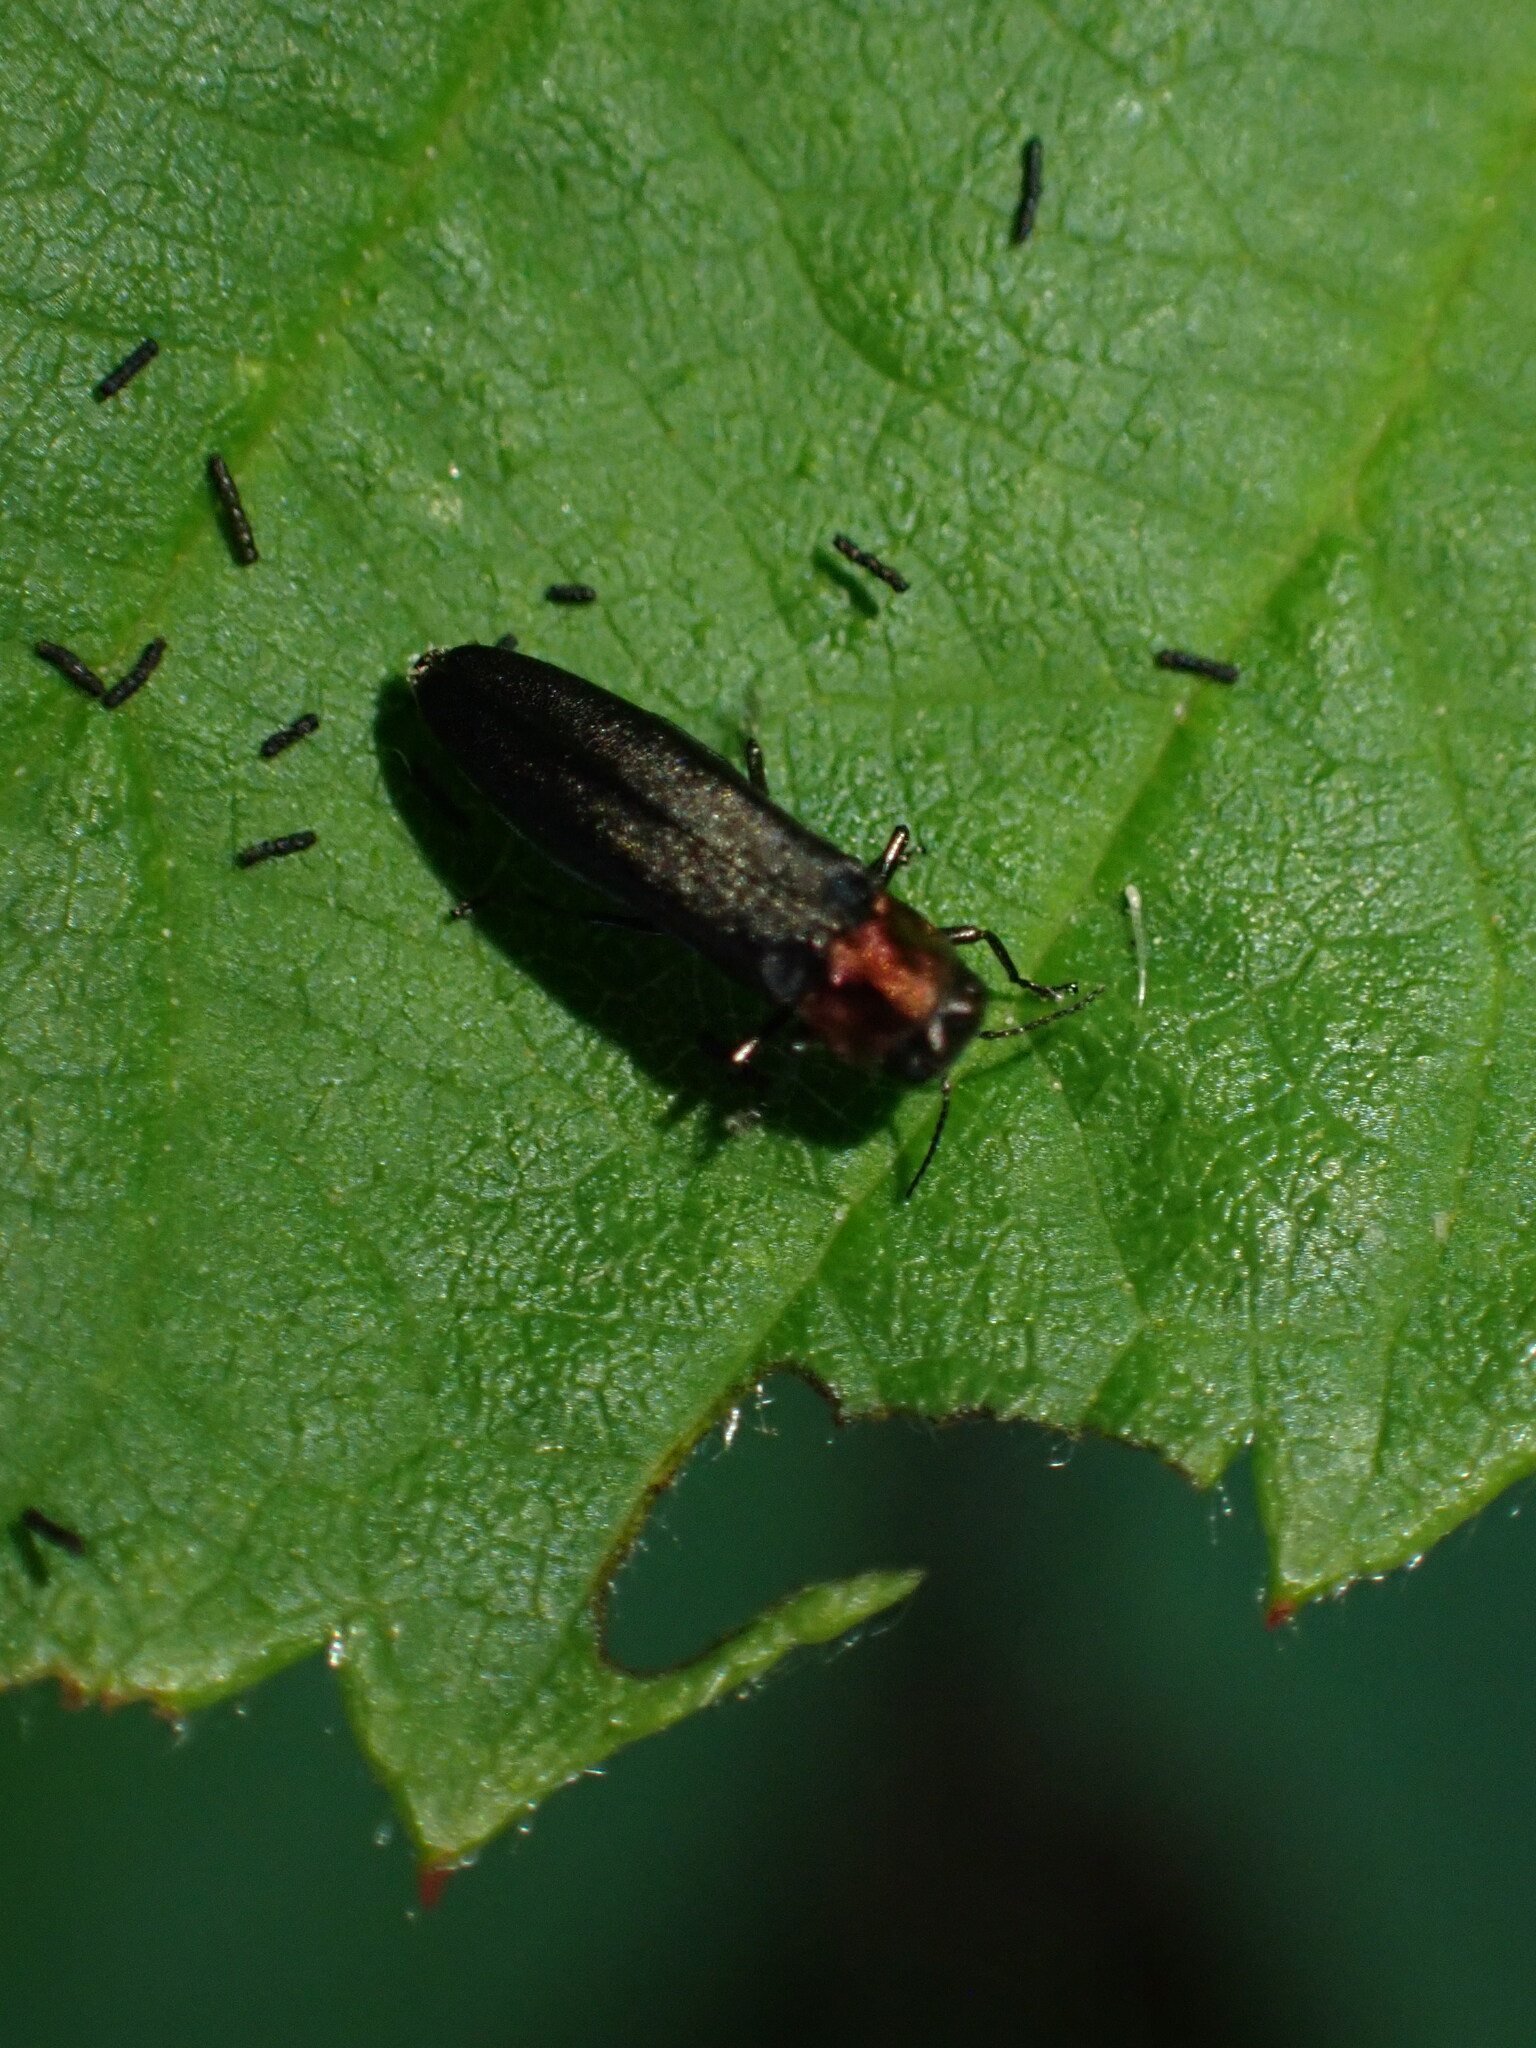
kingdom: Animalia
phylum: Arthropoda
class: Insecta
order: Coleoptera
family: Buprestidae
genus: Agrilus
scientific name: Agrilus ruficollis
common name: Red-necked cane borer beetle
